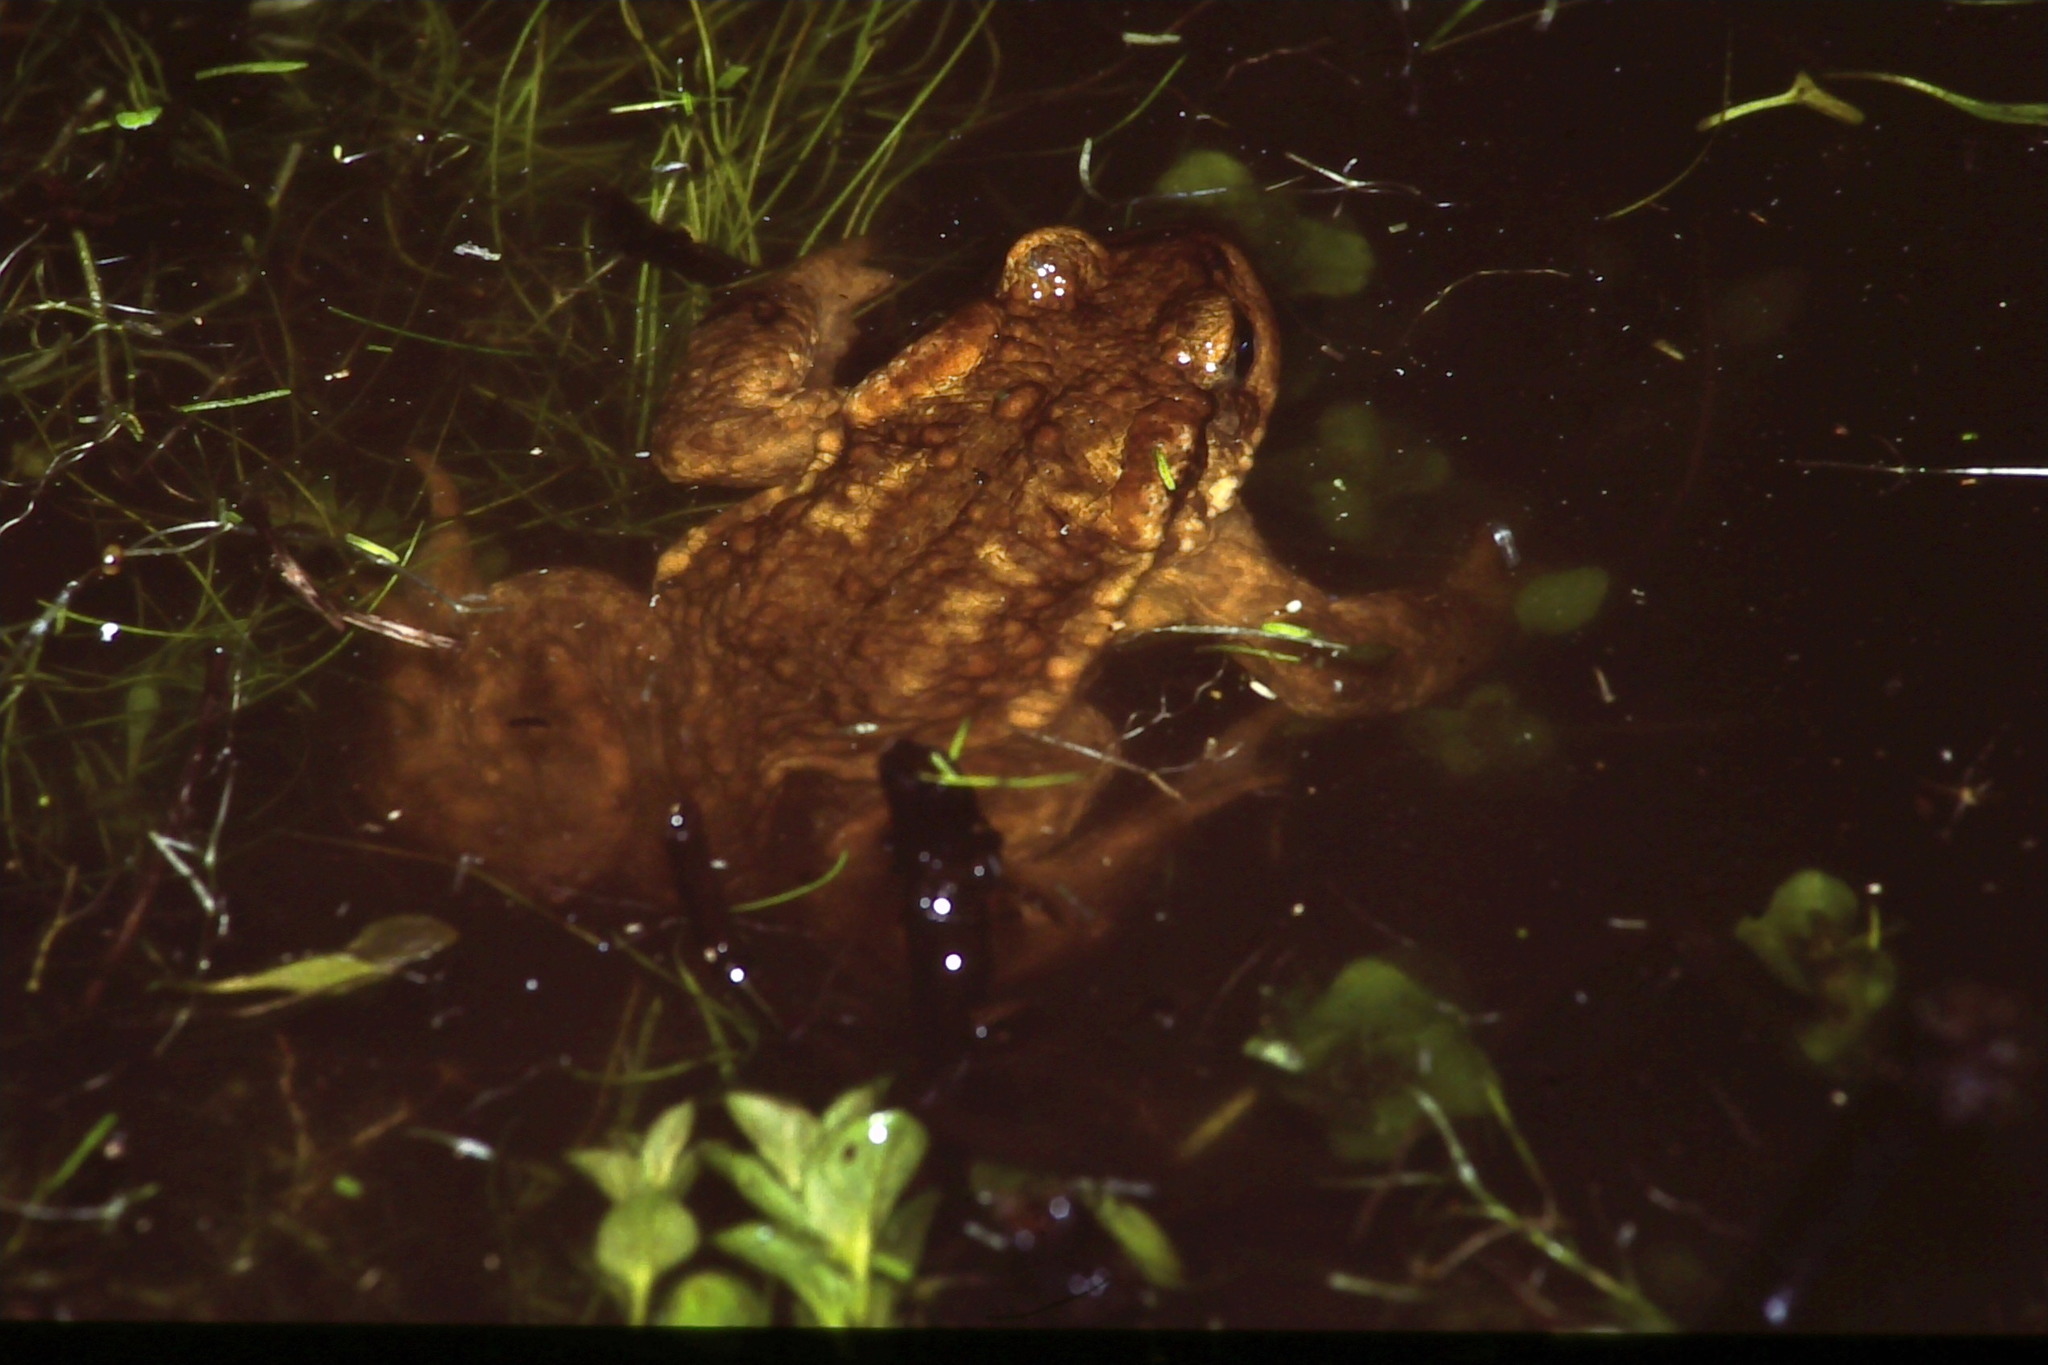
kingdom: Animalia
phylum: Chordata
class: Amphibia
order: Anura
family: Bufonidae
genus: Bufo
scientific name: Bufo spinosus
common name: Western common toad
